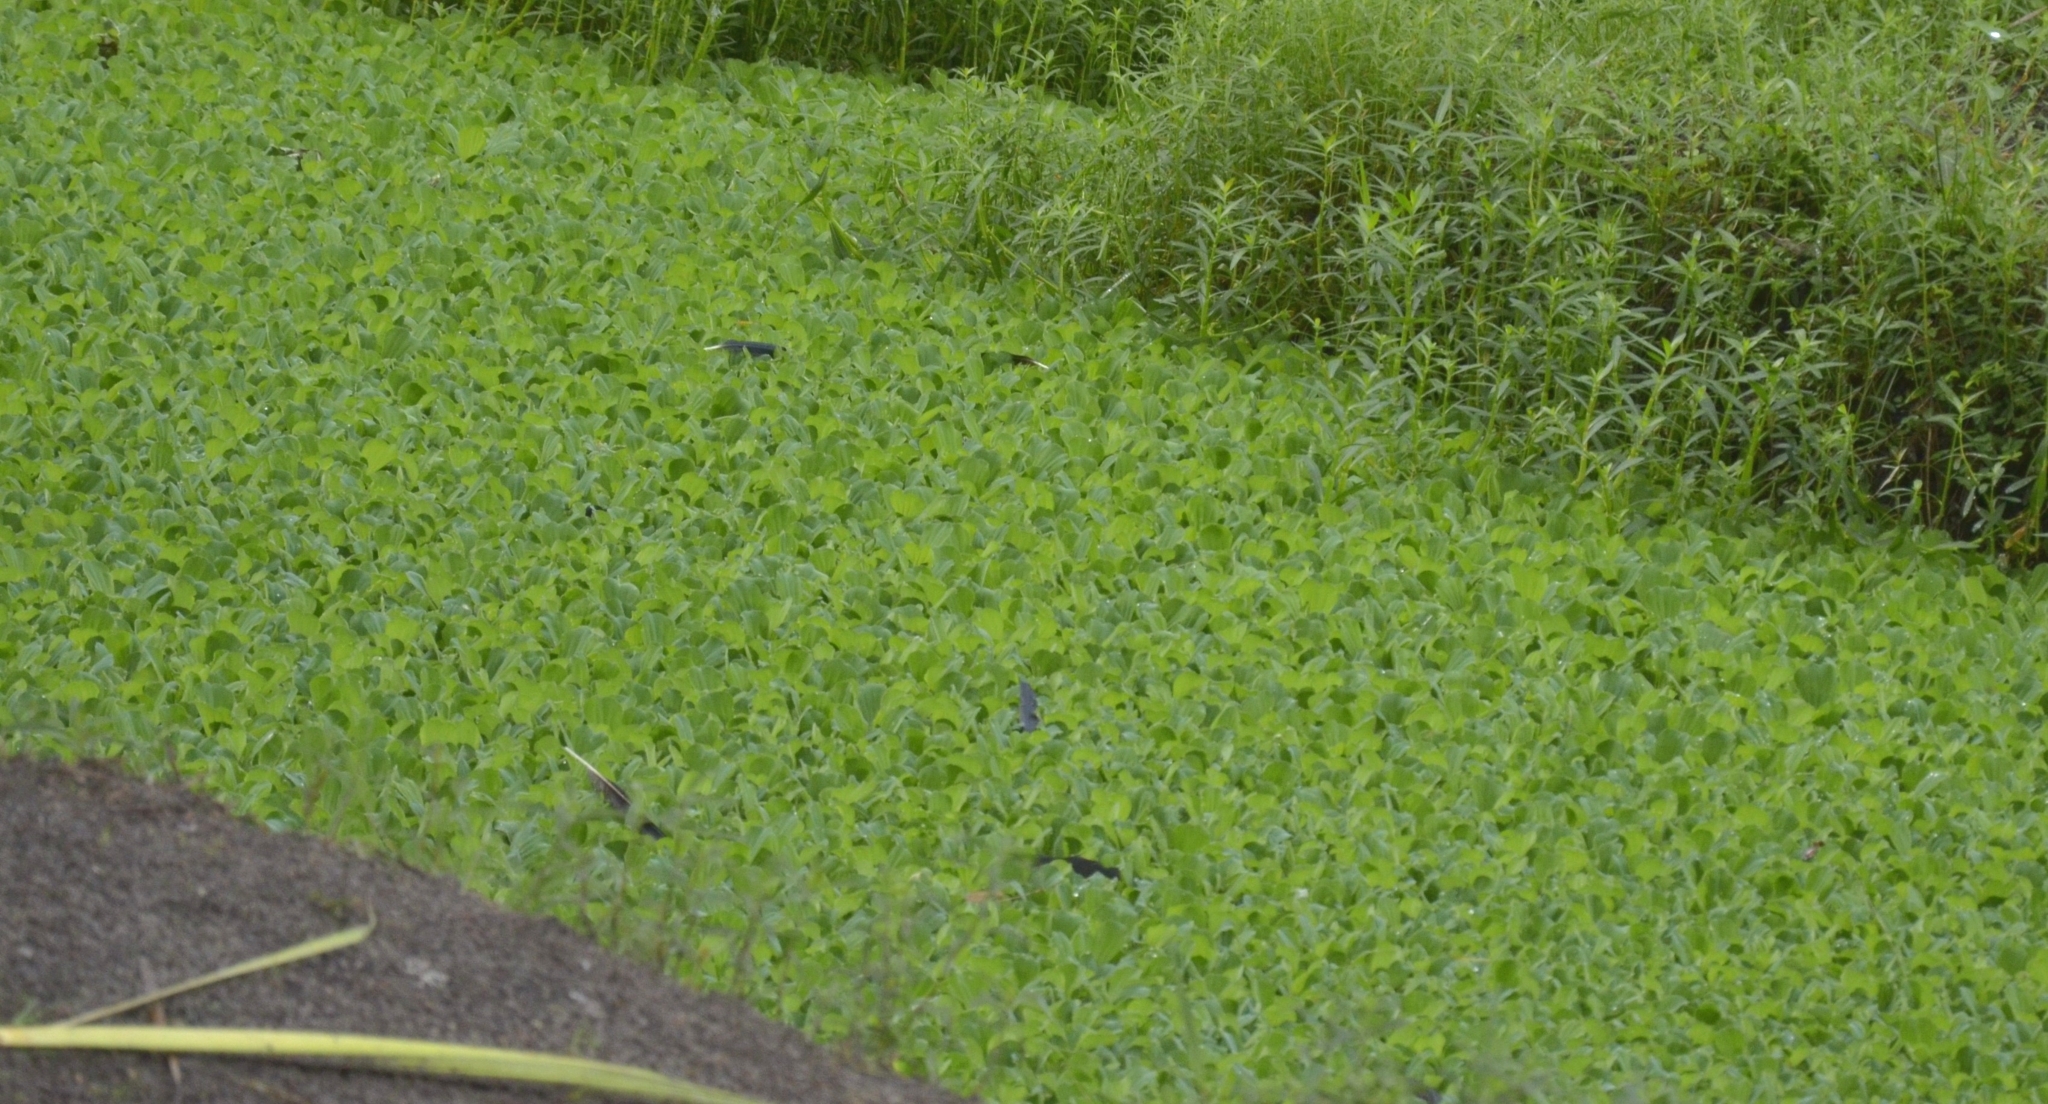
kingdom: Plantae
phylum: Tracheophyta
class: Liliopsida
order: Alismatales
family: Araceae
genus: Pistia
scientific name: Pistia stratiotes
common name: Water lettuce
